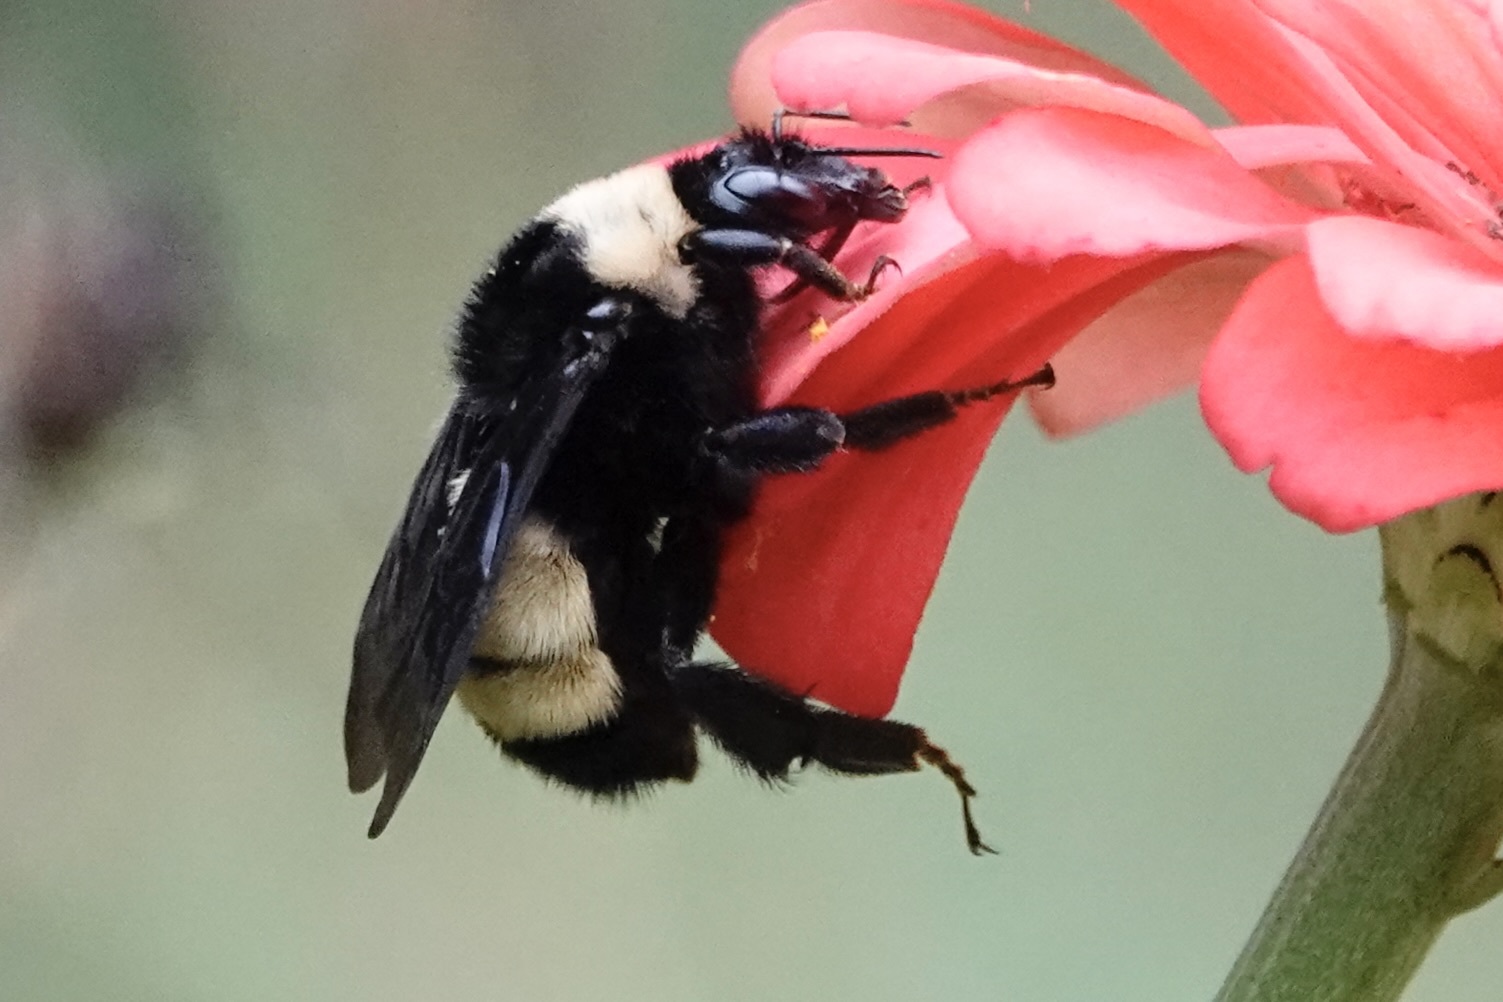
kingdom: Animalia
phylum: Arthropoda
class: Insecta
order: Hymenoptera
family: Apidae
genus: Bombus
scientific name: Bombus pensylvanicus
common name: Bumble bee
